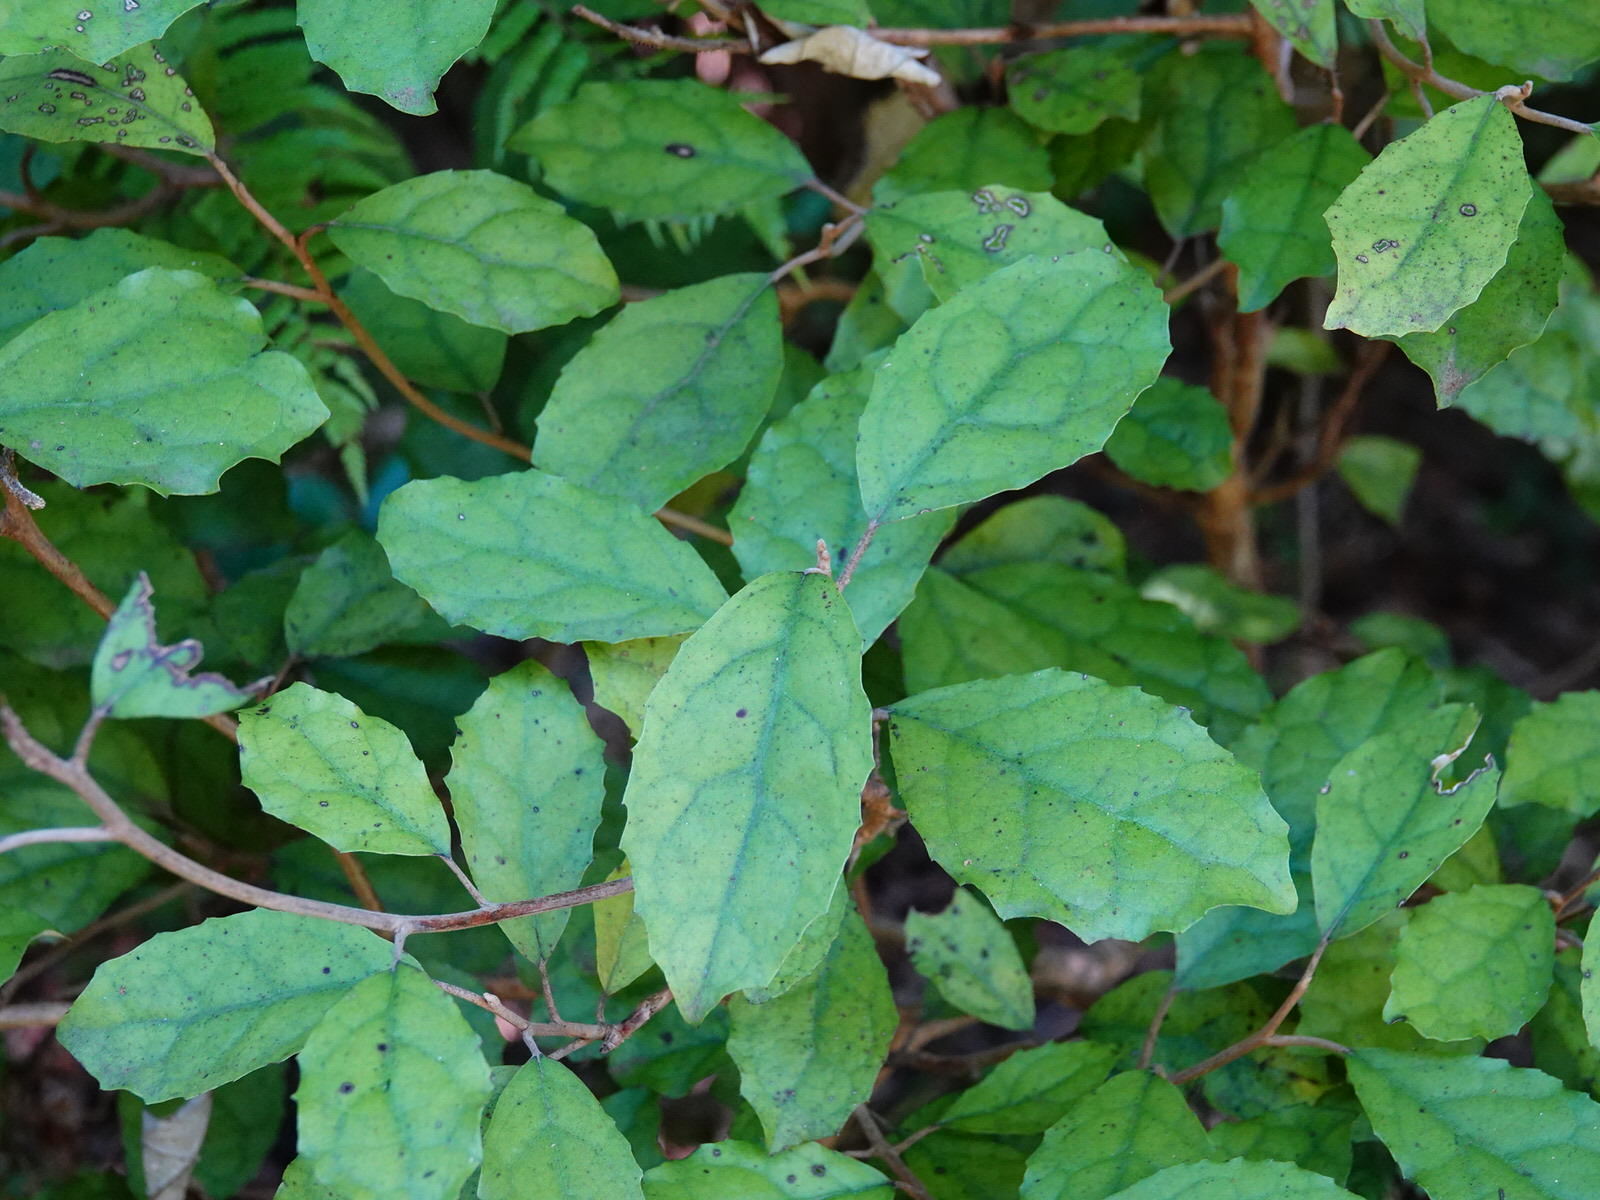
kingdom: Plantae
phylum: Tracheophyta
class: Magnoliopsida
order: Asterales
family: Asteraceae
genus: Olearia
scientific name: Olearia rani
